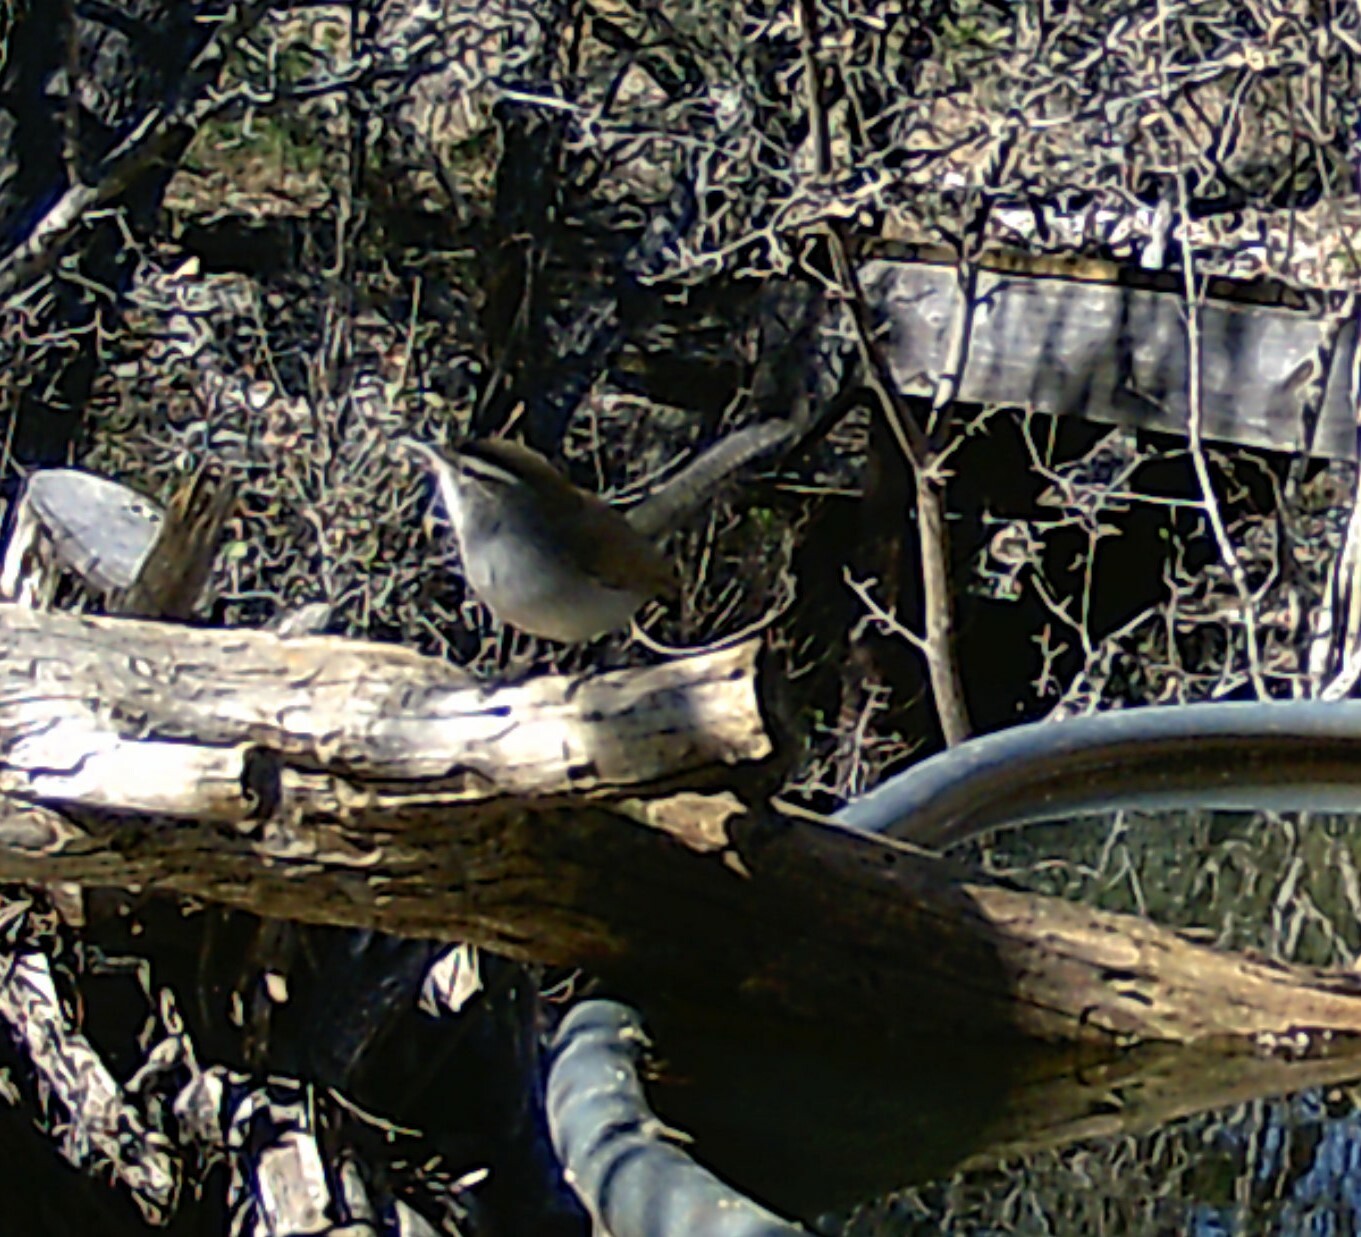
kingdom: Animalia
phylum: Chordata
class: Aves
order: Passeriformes
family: Troglodytidae
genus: Thryomanes
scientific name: Thryomanes bewickii
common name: Bewick's wren
